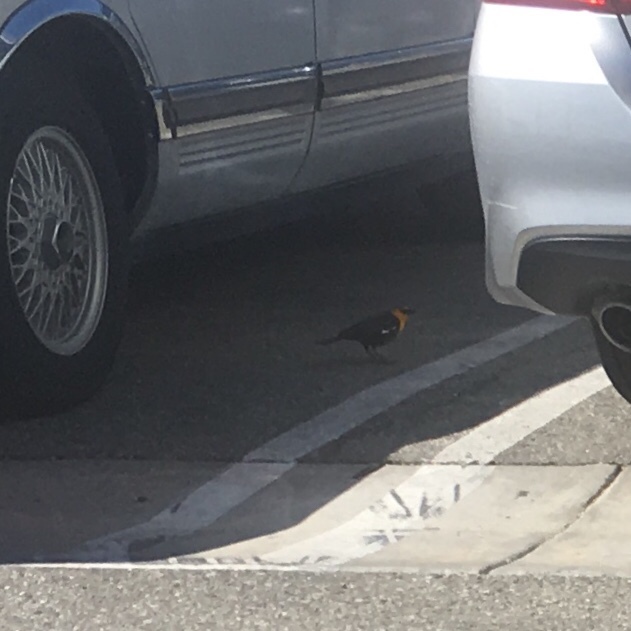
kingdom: Animalia
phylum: Chordata
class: Aves
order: Passeriformes
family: Icteridae
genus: Xanthocephalus
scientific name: Xanthocephalus xanthocephalus
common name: Yellow-headed blackbird
